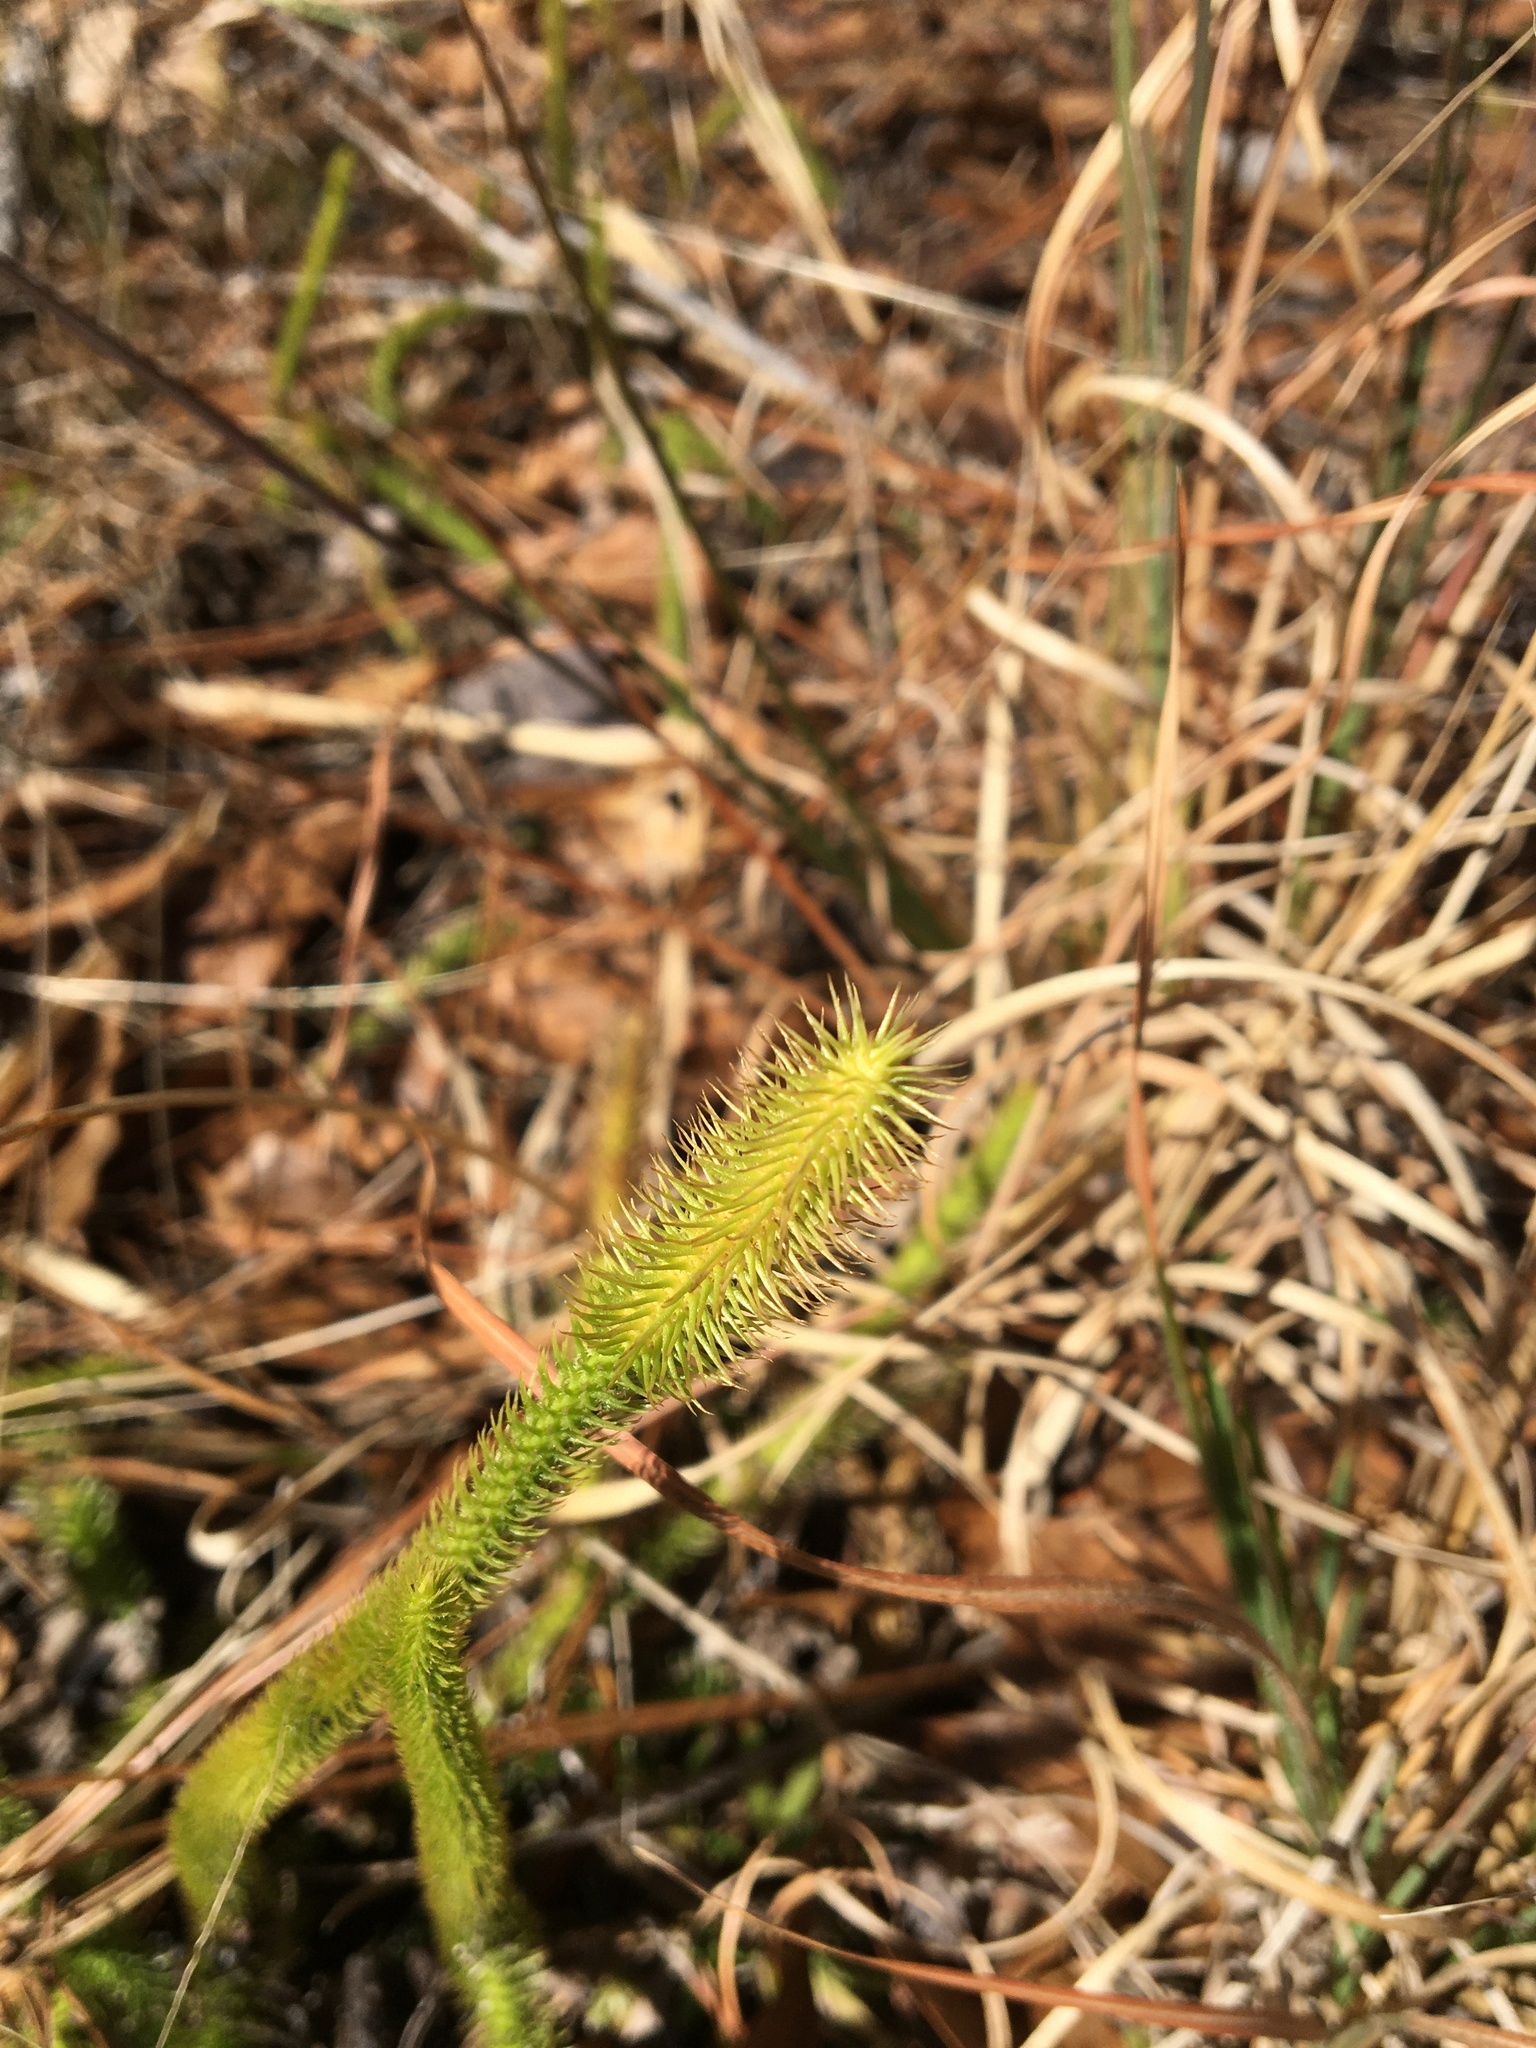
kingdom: Plantae
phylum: Tracheophyta
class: Lycopodiopsida
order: Lycopodiales
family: Lycopodiaceae
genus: Lycopodiella
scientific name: Lycopodiella alopecuroides
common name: Foxtail clubmoss
